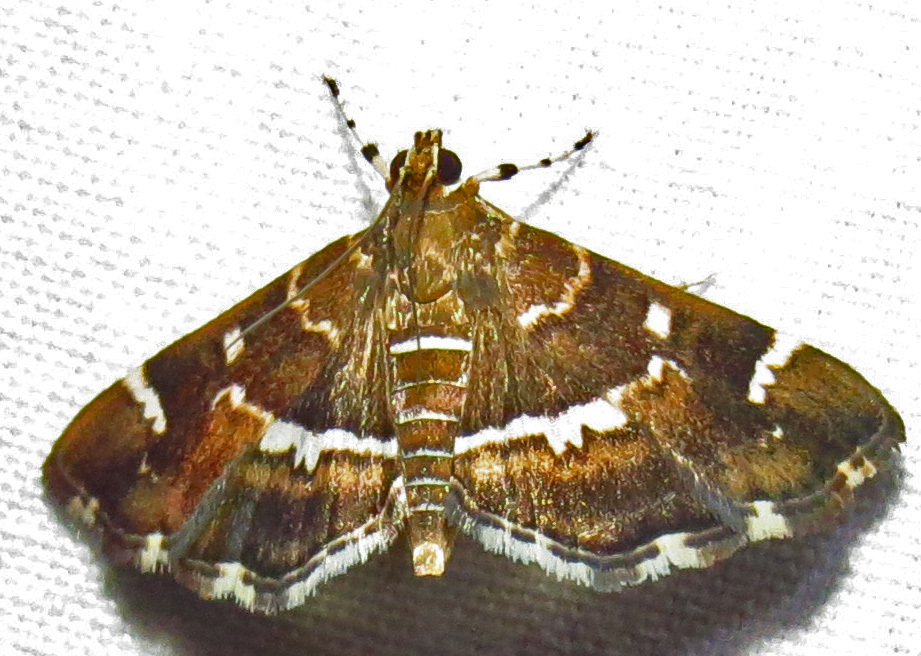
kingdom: Animalia
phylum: Arthropoda
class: Insecta
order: Lepidoptera
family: Crambidae
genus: Hymenia
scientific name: Hymenia perspectalis
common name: Spotted beet webworm
